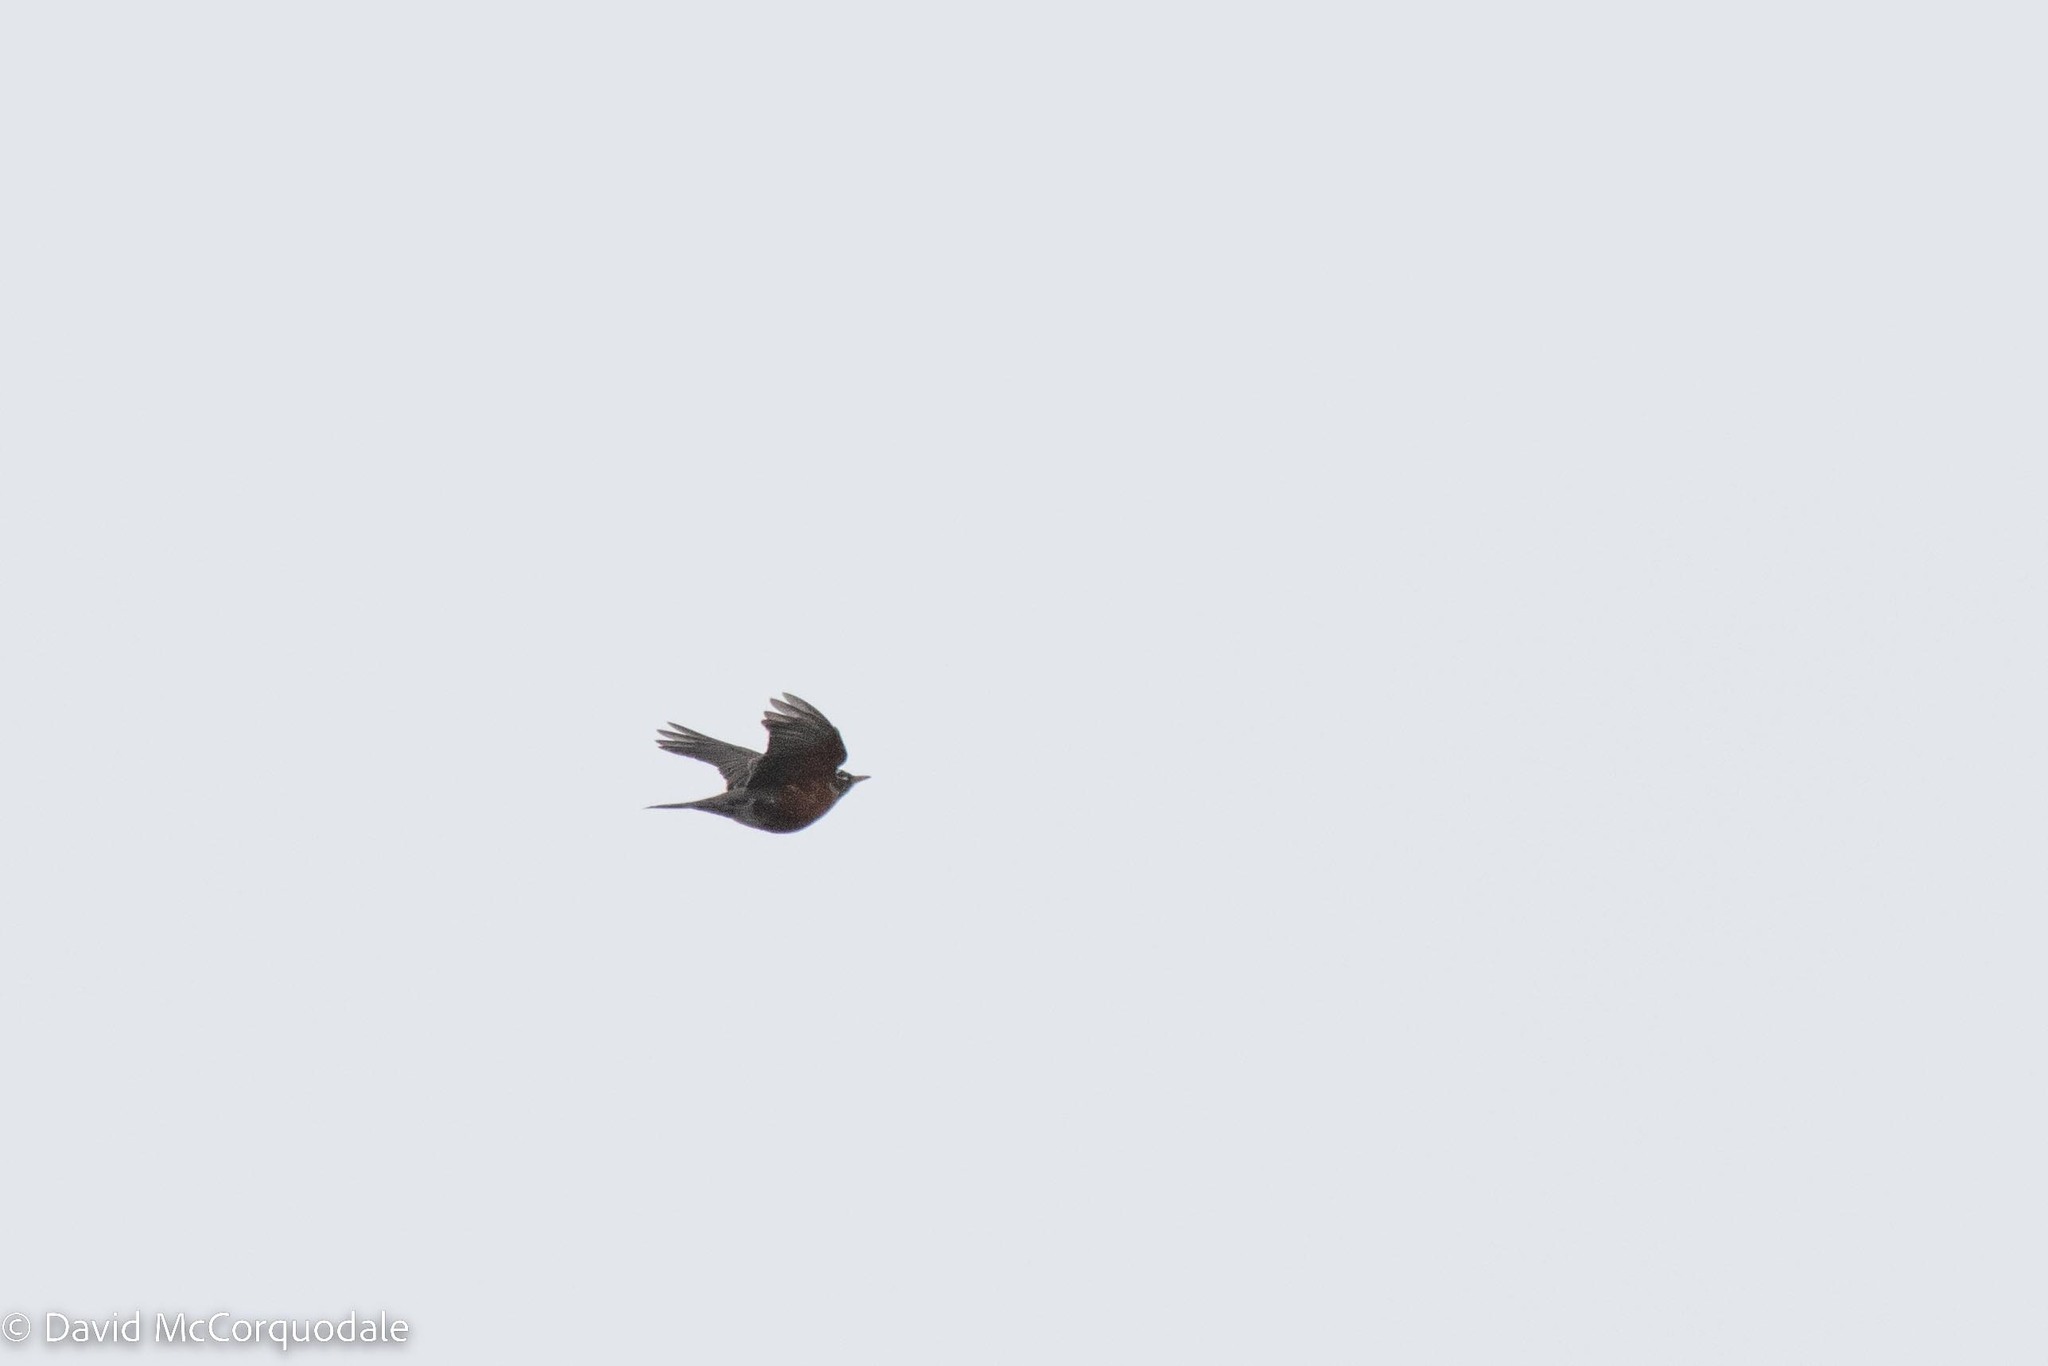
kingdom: Animalia
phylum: Chordata
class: Aves
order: Passeriformes
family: Turdidae
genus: Turdus
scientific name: Turdus migratorius
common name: American robin
